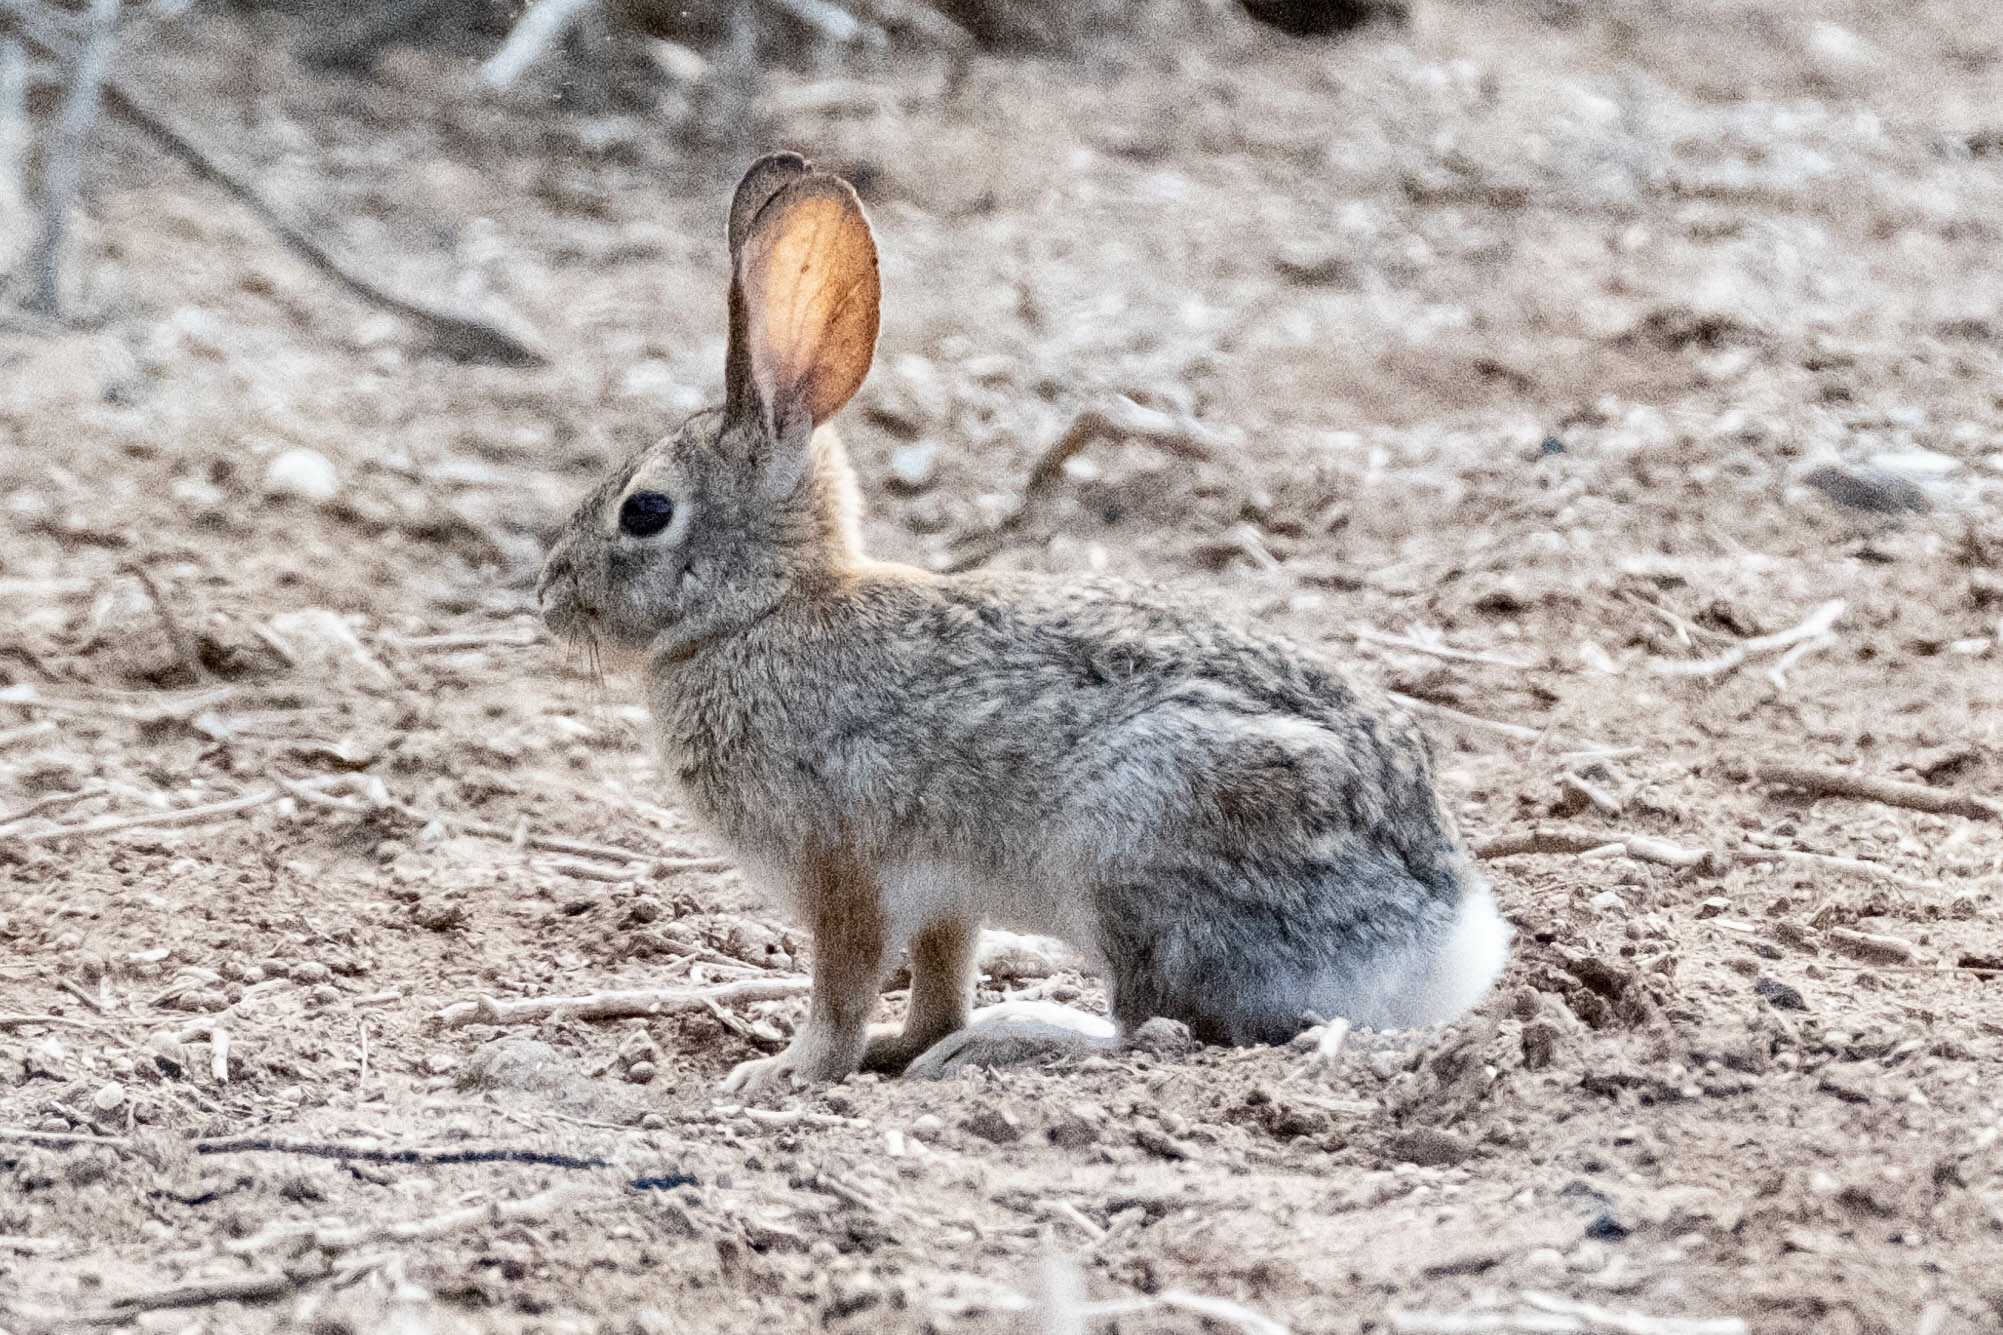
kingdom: Animalia
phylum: Chordata
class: Mammalia
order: Lagomorpha
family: Leporidae
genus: Sylvilagus
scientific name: Sylvilagus audubonii
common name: Desert cottontail
